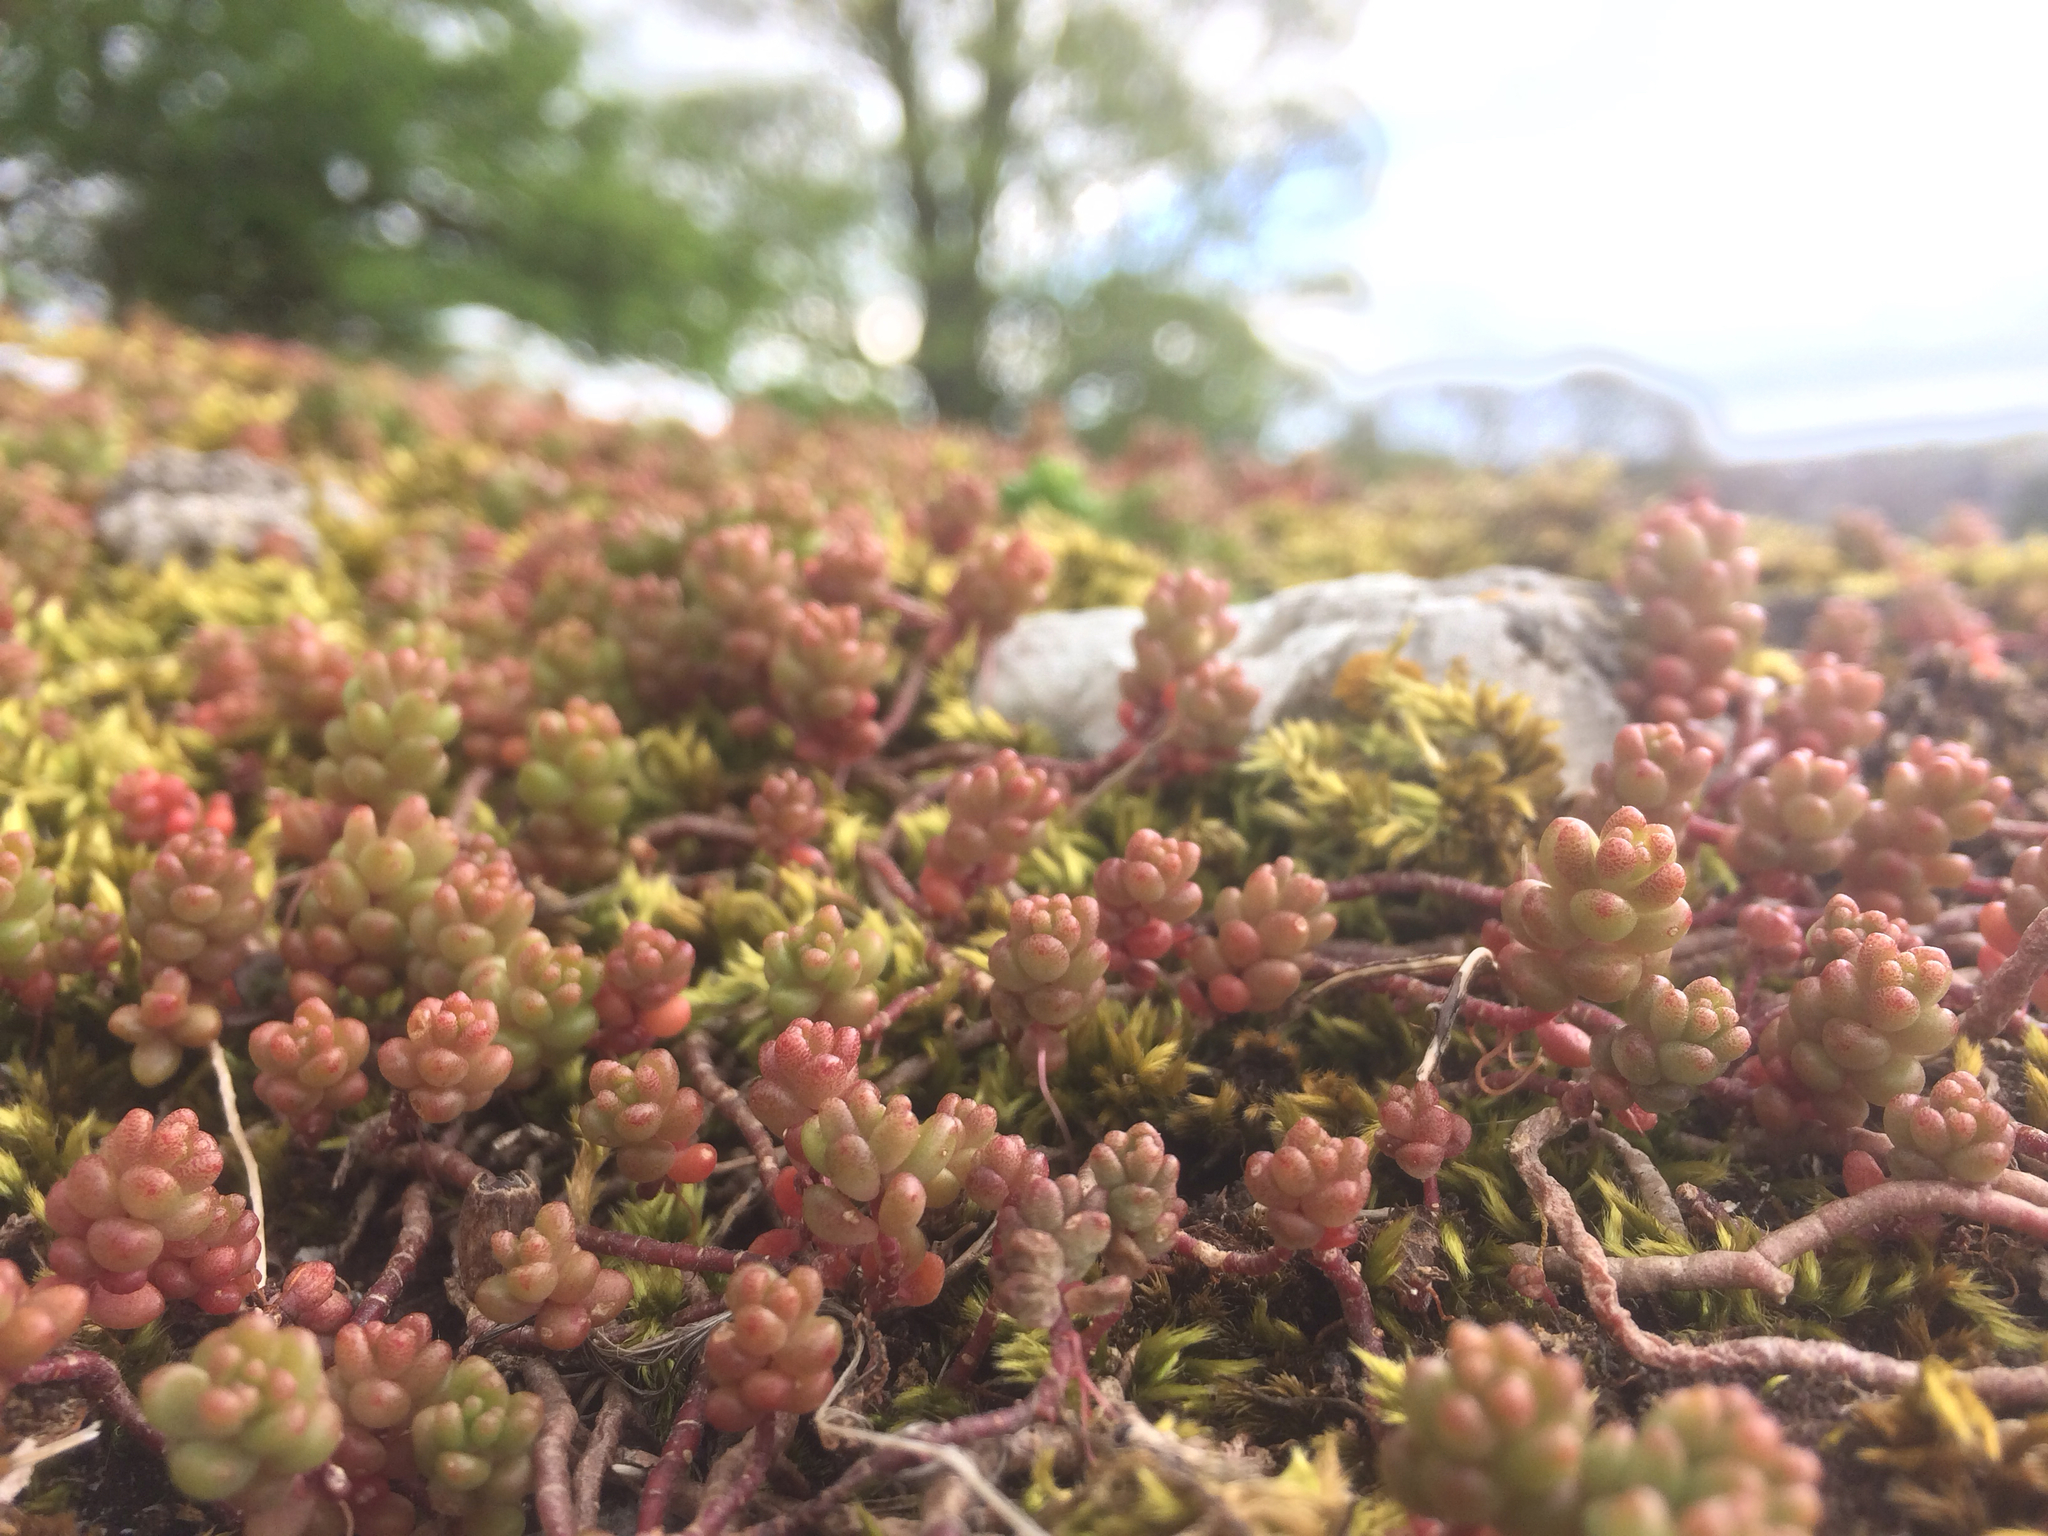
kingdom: Plantae
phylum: Tracheophyta
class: Magnoliopsida
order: Saxifragales
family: Crassulaceae
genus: Sedum
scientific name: Sedum album
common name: White stonecrop
